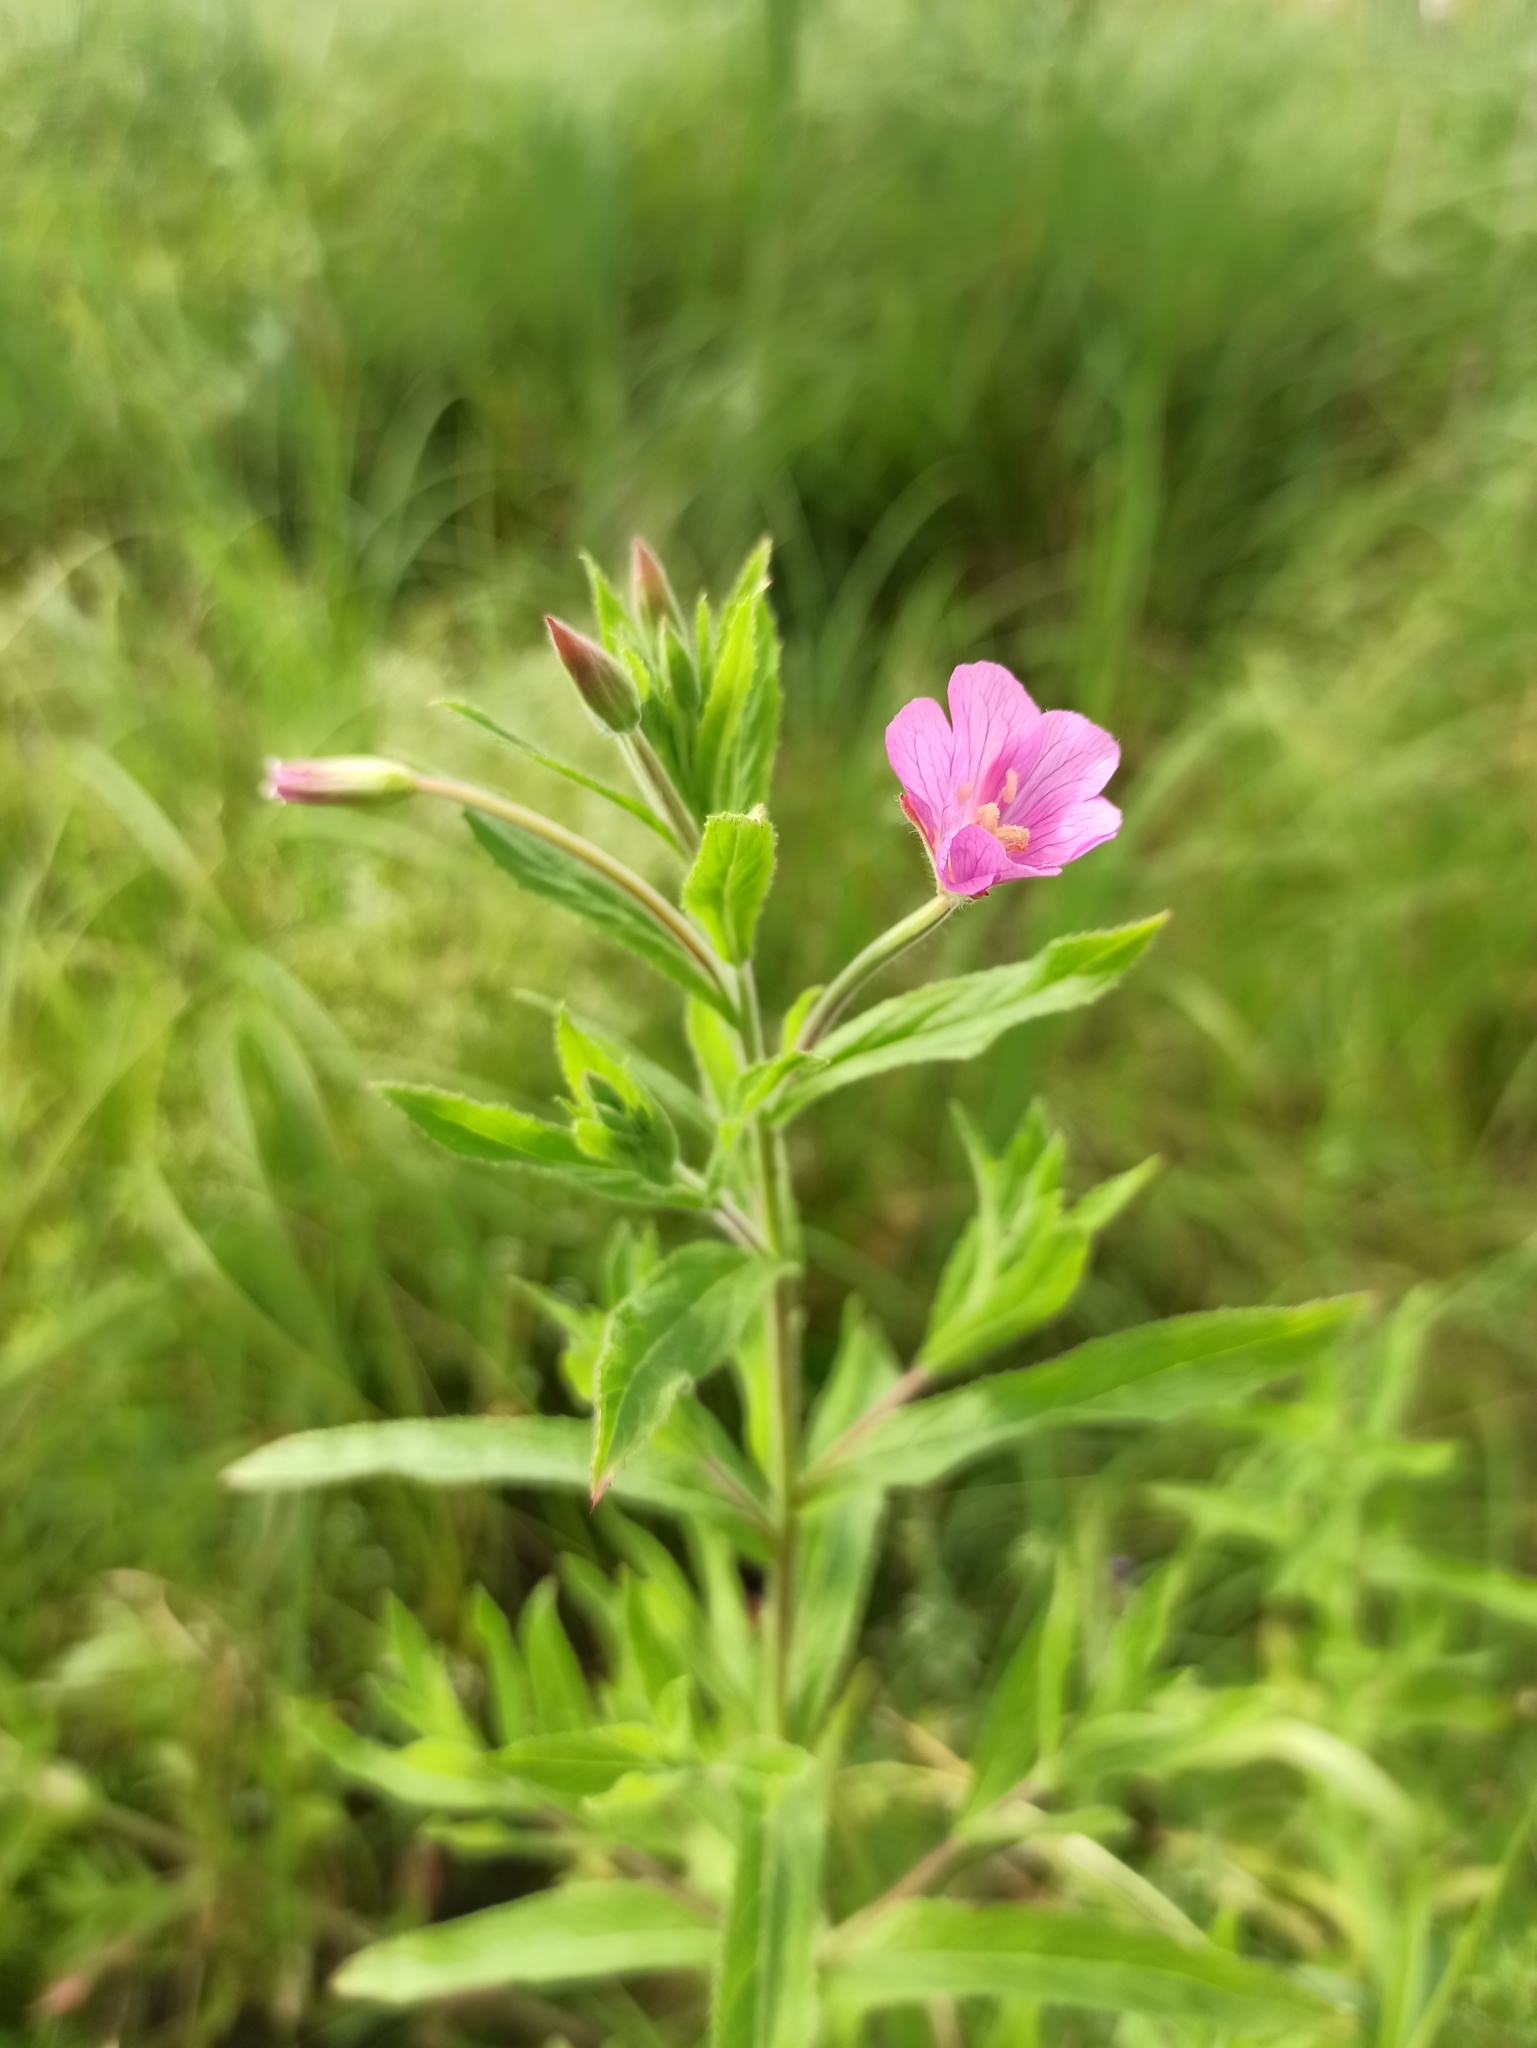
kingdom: Plantae
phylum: Tracheophyta
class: Magnoliopsida
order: Myrtales
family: Onagraceae
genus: Epilobium
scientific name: Epilobium hirsutum
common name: Great willowherb
